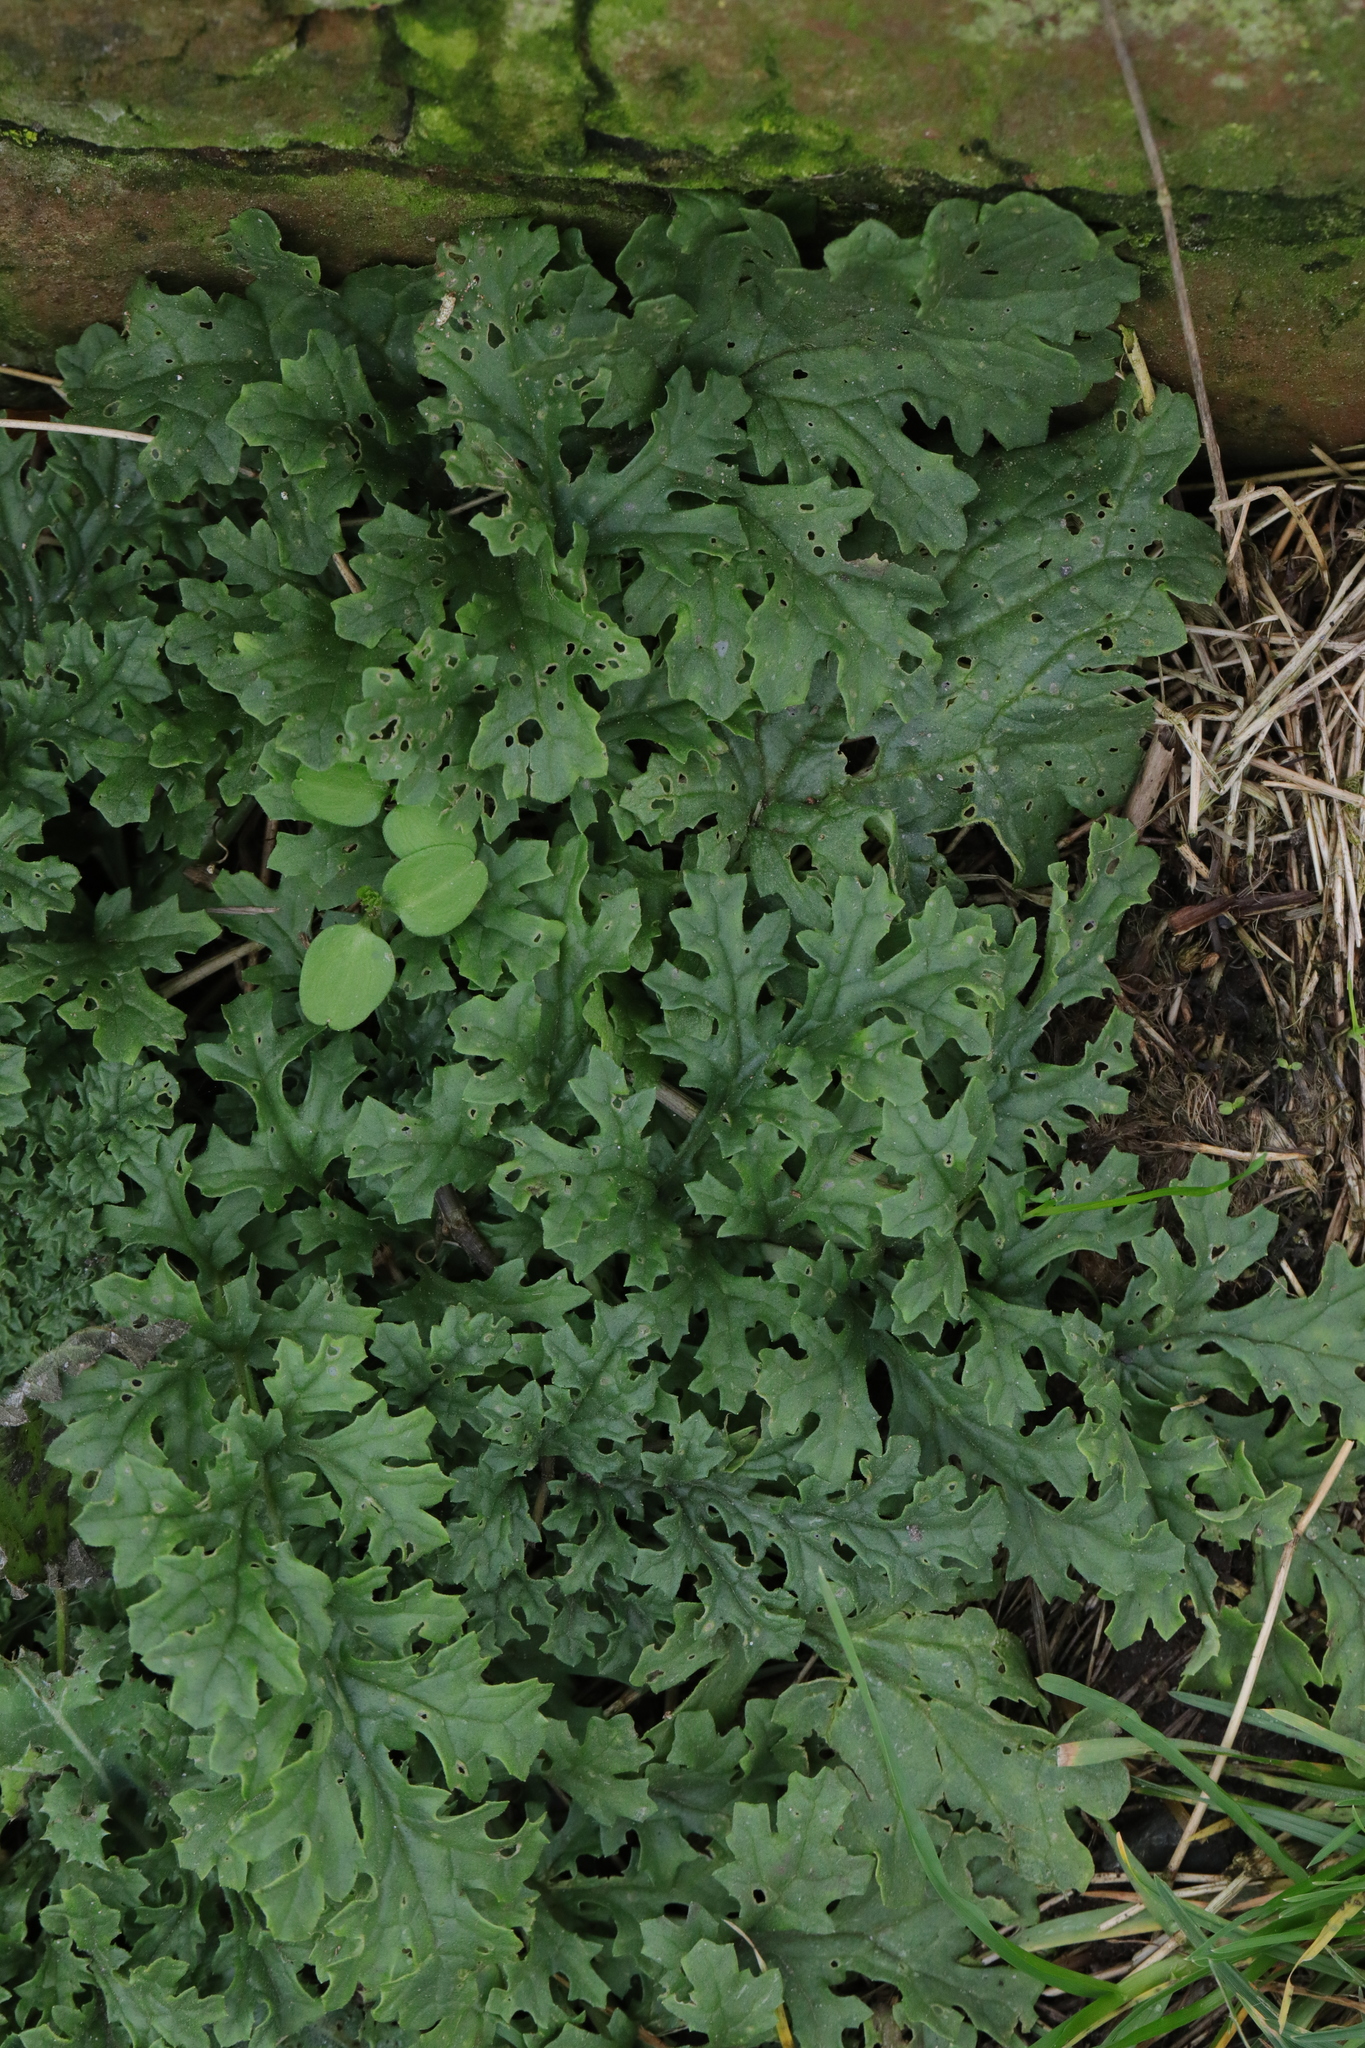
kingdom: Plantae
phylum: Tracheophyta
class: Magnoliopsida
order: Asterales
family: Asteraceae
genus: Jacobaea
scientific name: Jacobaea vulgaris
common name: Stinking willie
